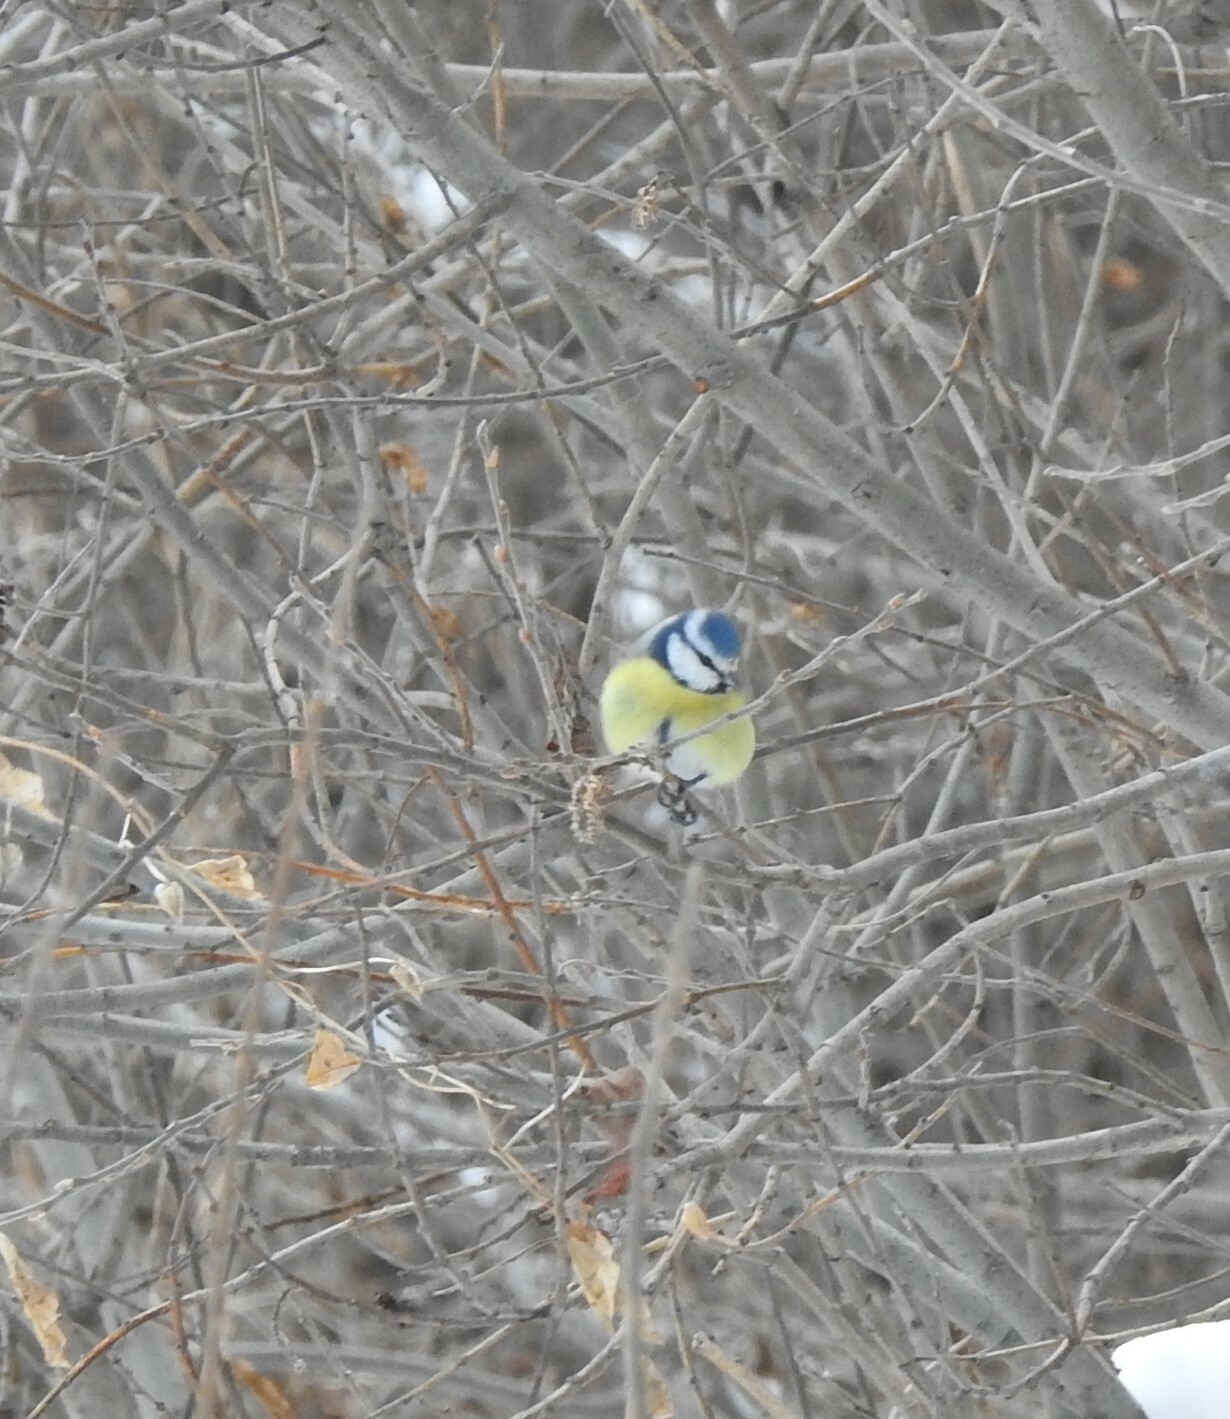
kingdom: Animalia
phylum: Chordata
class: Aves
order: Passeriformes
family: Paridae
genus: Cyanistes
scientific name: Cyanistes caeruleus
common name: Eurasian blue tit
